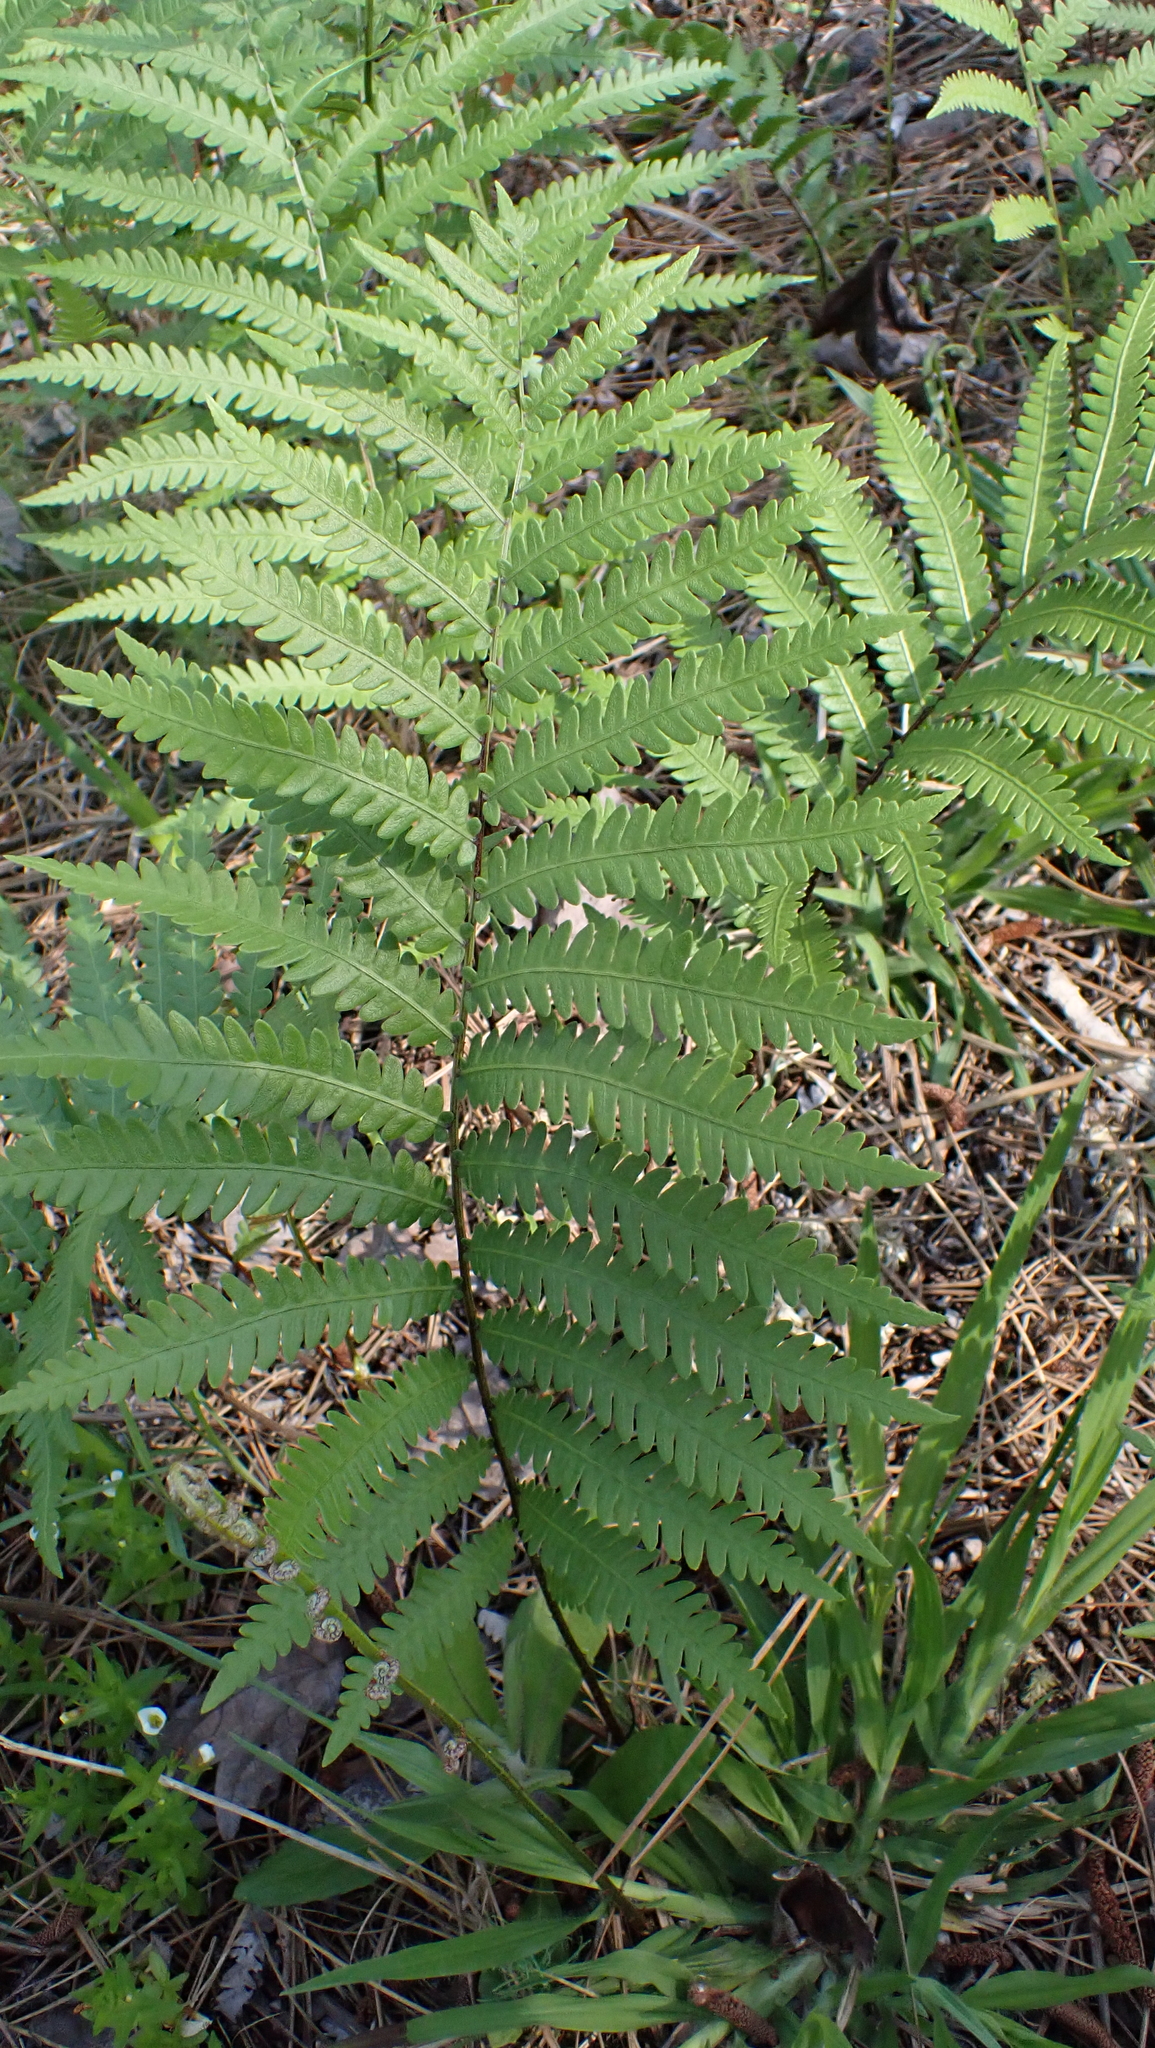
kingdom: Plantae
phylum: Tracheophyta
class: Polypodiopsida
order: Polypodiales
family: Blechnaceae
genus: Anchistea
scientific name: Anchistea virginica
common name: Virginia chain fern
